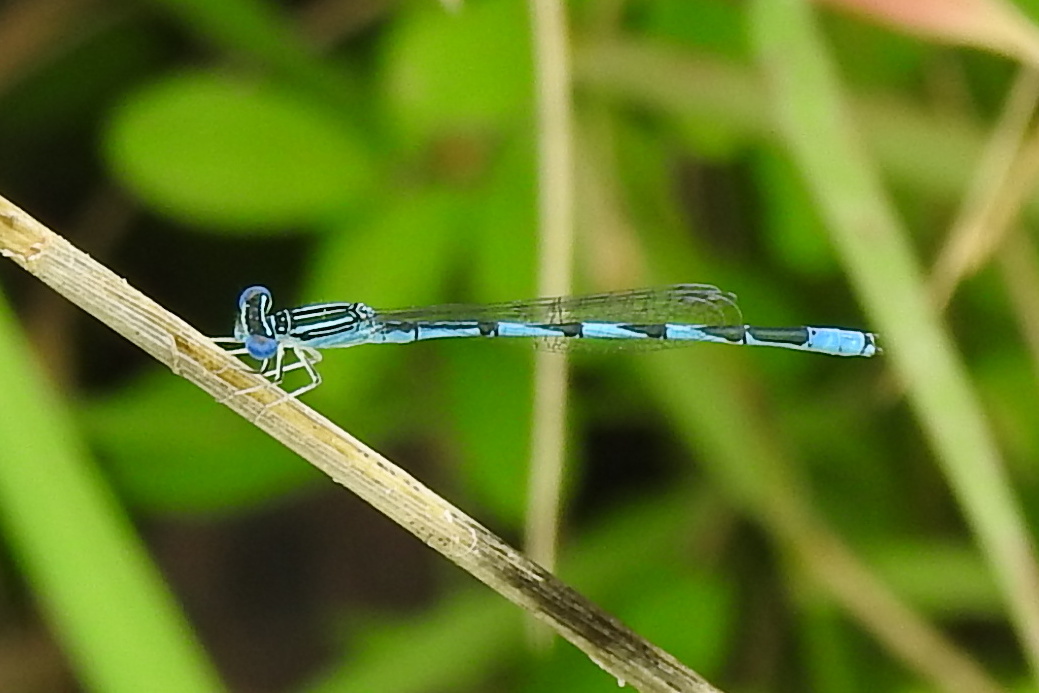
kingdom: Animalia
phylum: Arthropoda
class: Insecta
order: Odonata
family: Coenagrionidae
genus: Enallagma
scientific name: Enallagma basidens
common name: Double-striped bluet
